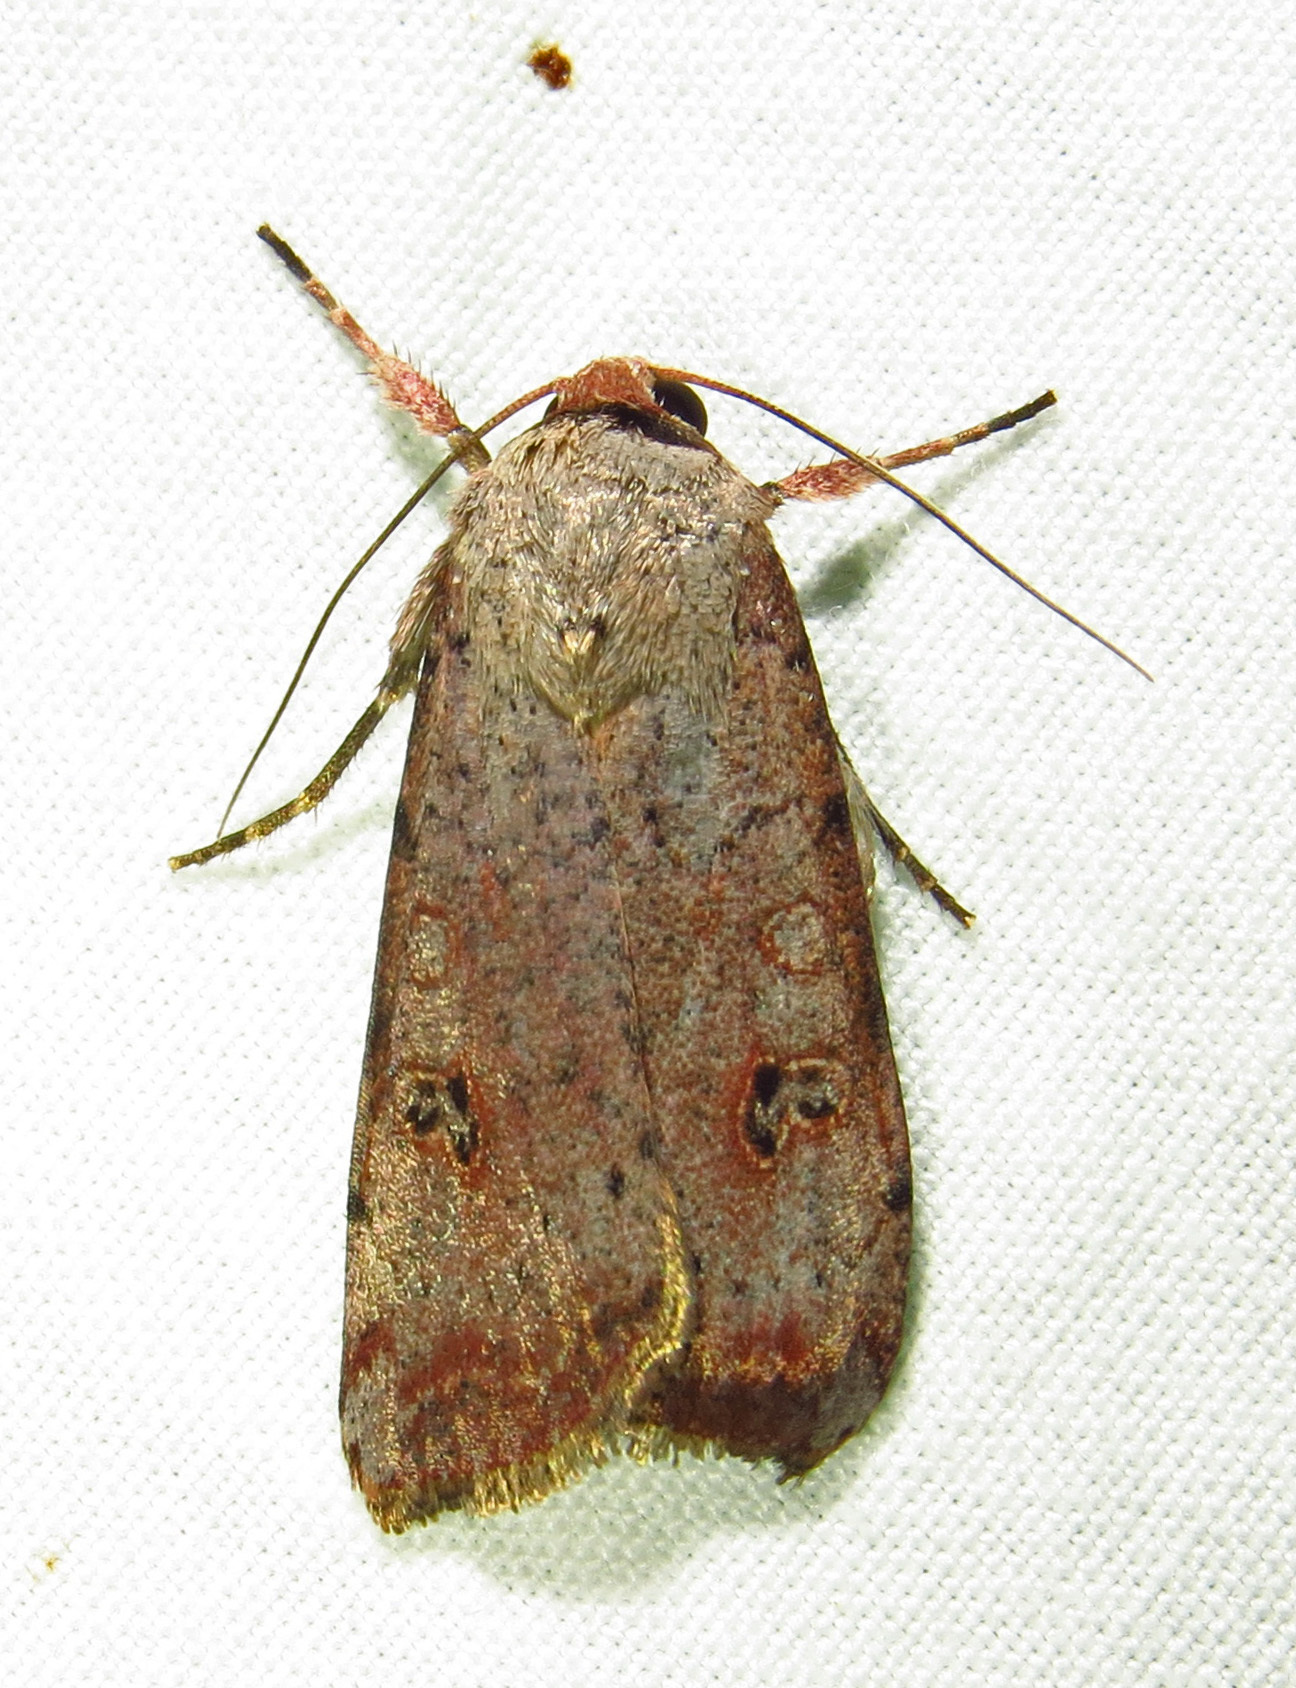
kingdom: Animalia
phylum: Arthropoda
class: Insecta
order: Lepidoptera
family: Noctuidae
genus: Anicla
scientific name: Anicla infecta
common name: Green cutworm
